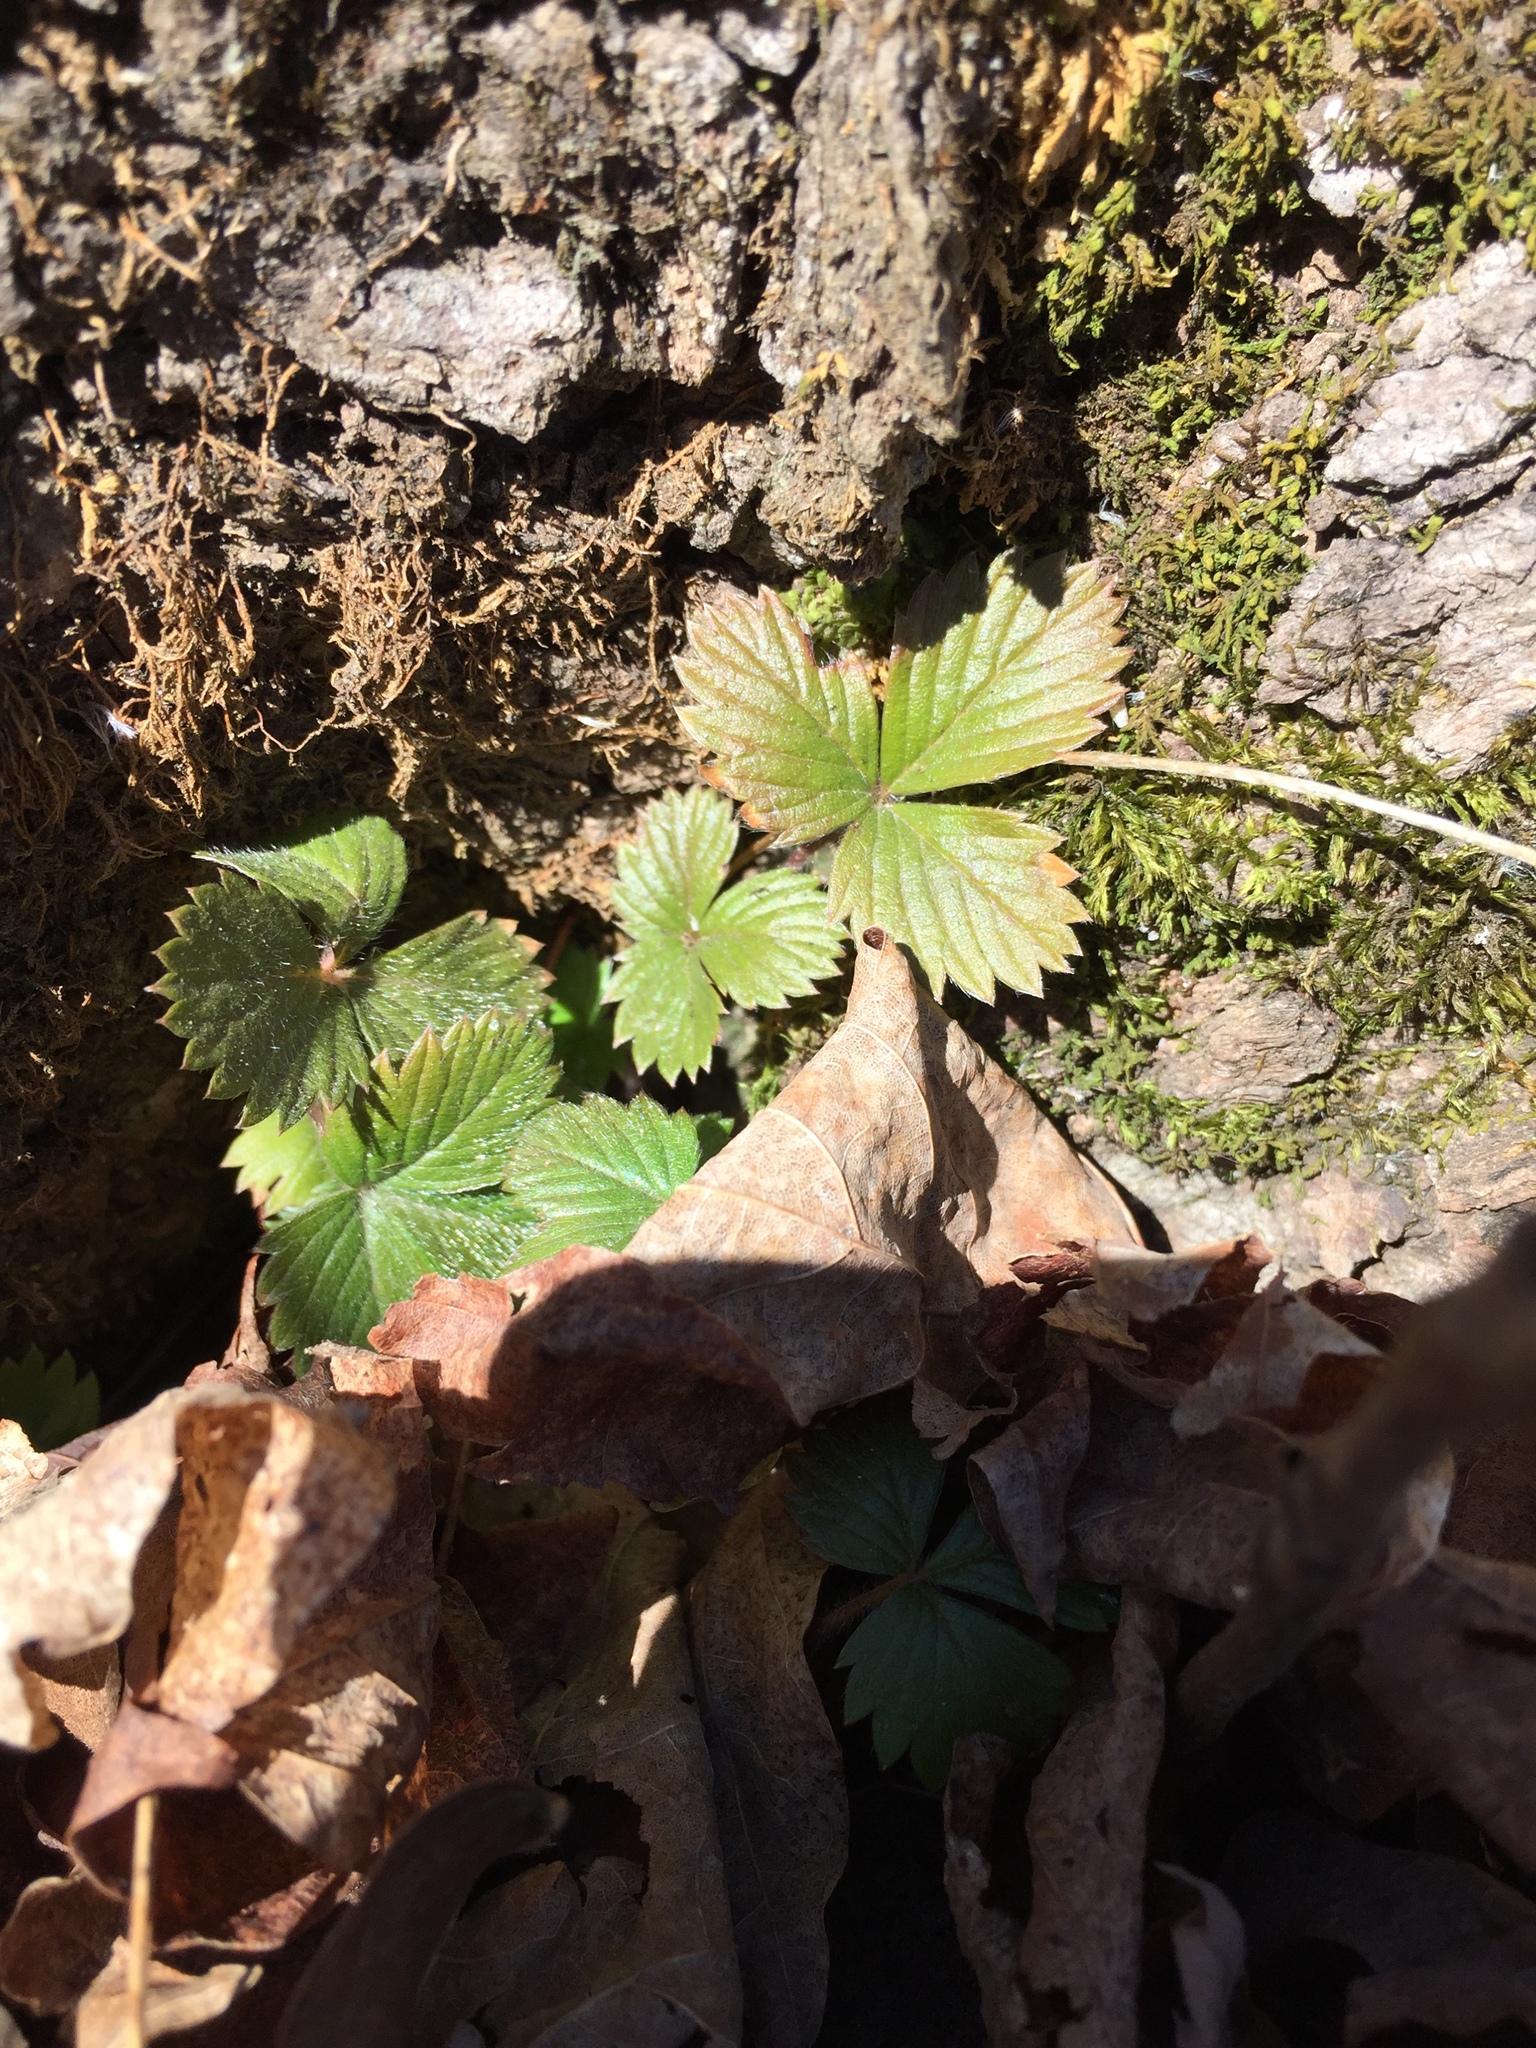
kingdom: Plantae
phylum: Tracheophyta
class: Magnoliopsida
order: Rosales
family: Rosaceae
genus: Fragaria
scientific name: Fragaria virginiana
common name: Thickleaved wild strawberry
